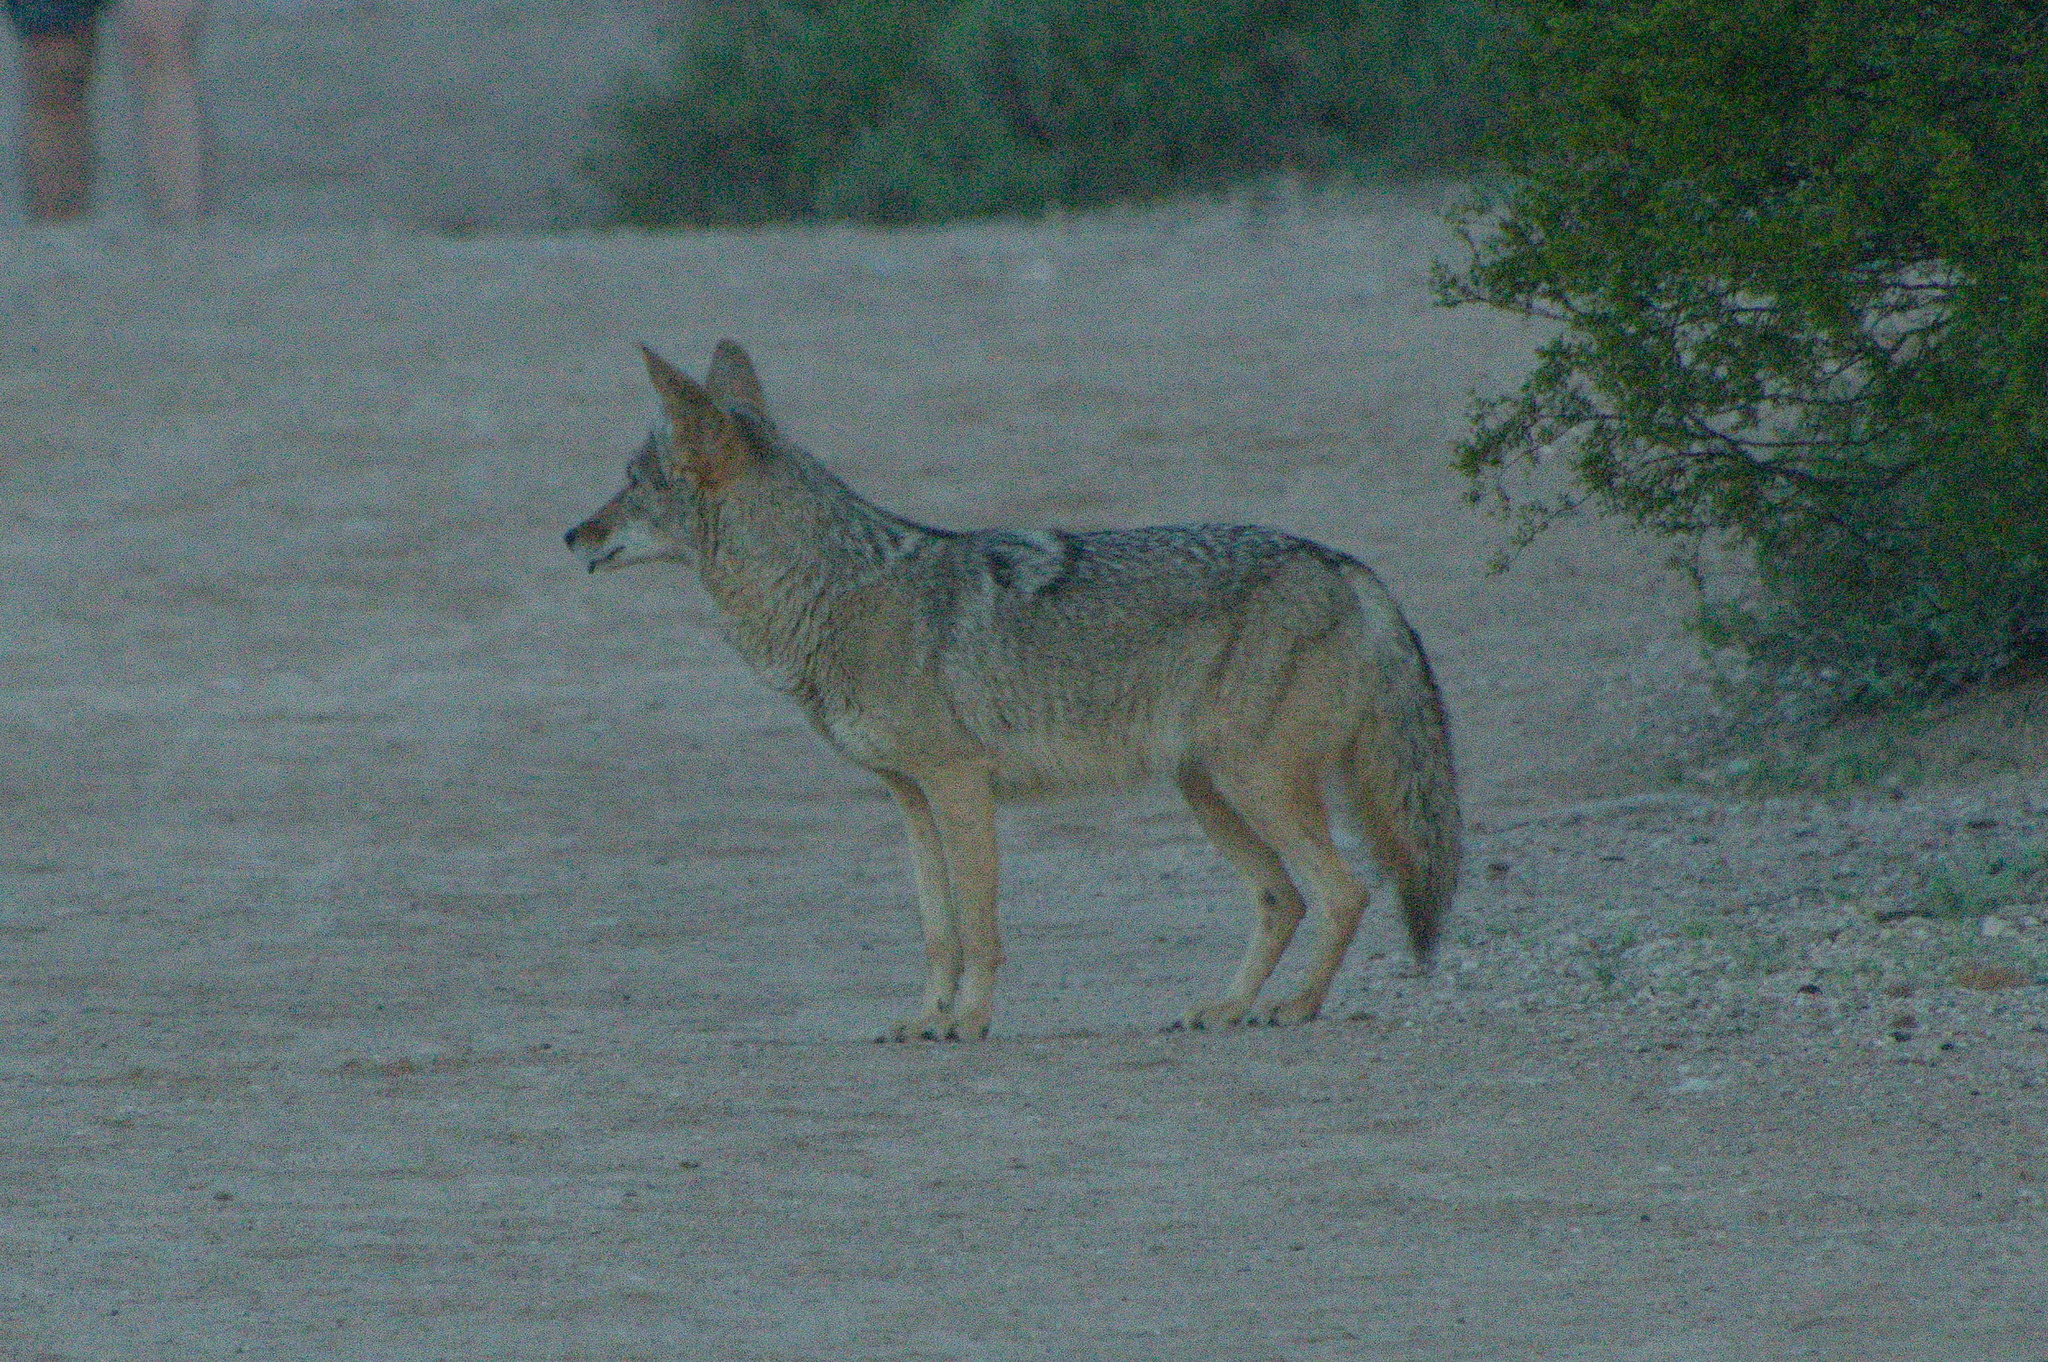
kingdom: Animalia
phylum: Chordata
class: Mammalia
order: Carnivora
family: Canidae
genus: Canis
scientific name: Canis latrans
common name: Coyote
